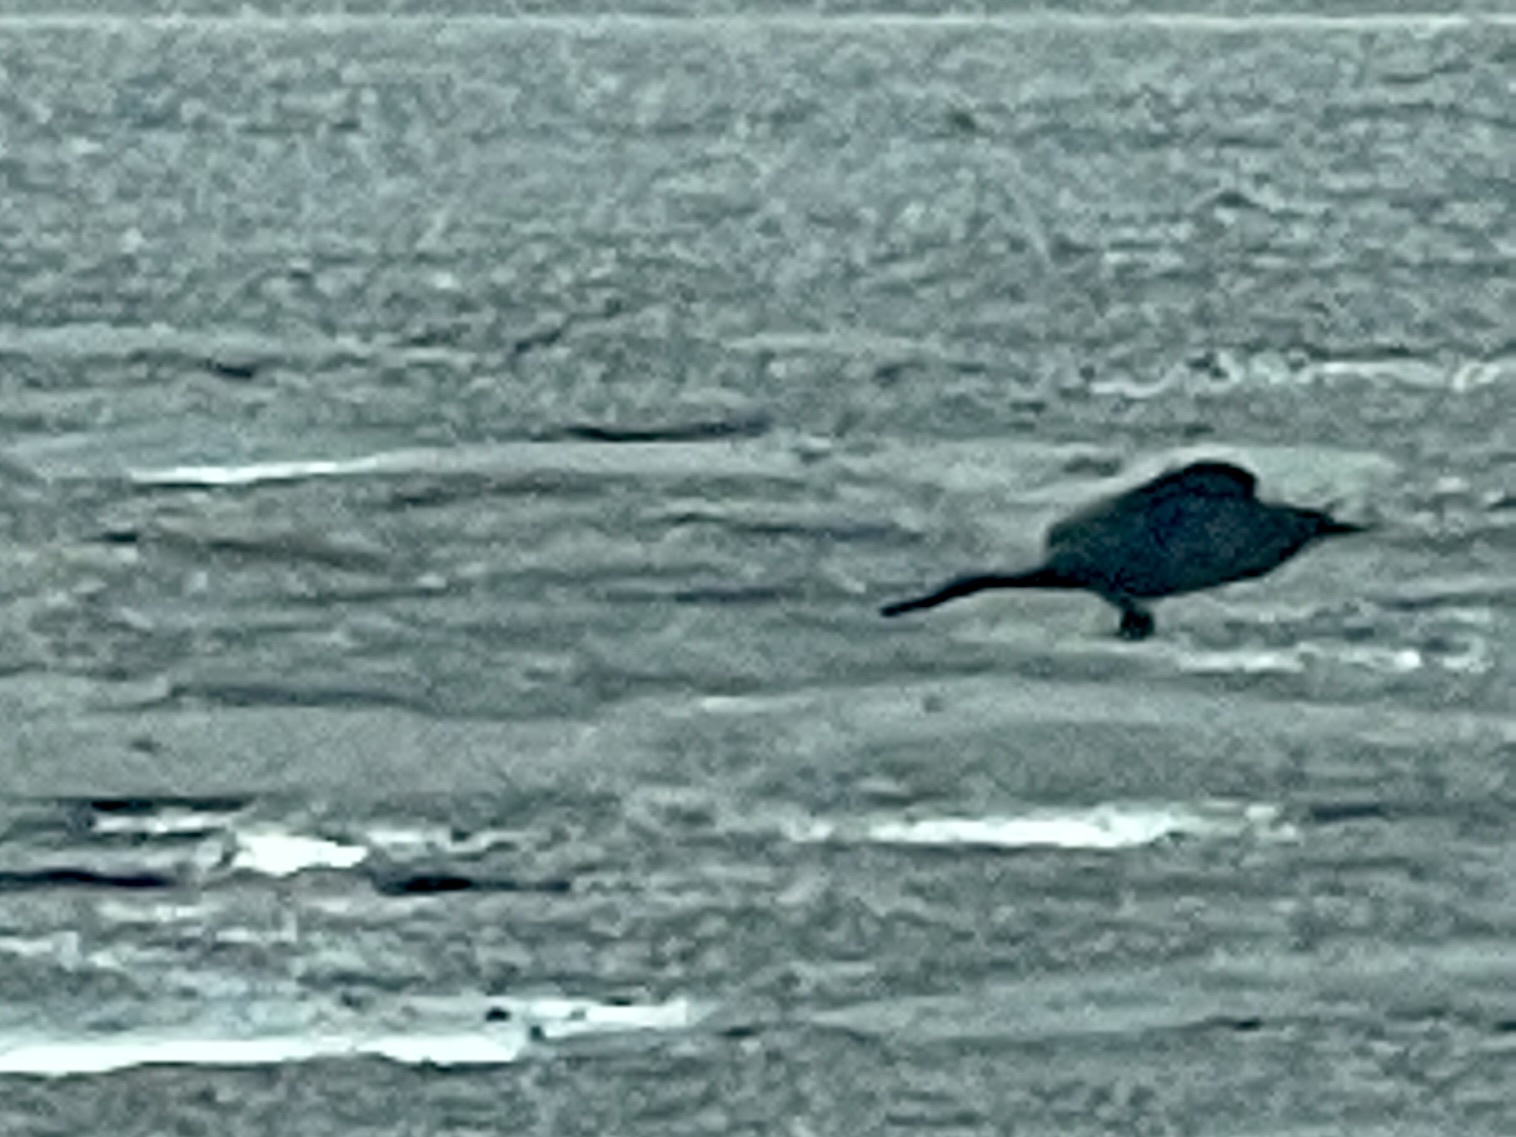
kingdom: Animalia
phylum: Chordata
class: Aves
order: Passeriformes
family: Icteridae
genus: Quiscalus
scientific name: Quiscalus mexicanus
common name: Great-tailed grackle
